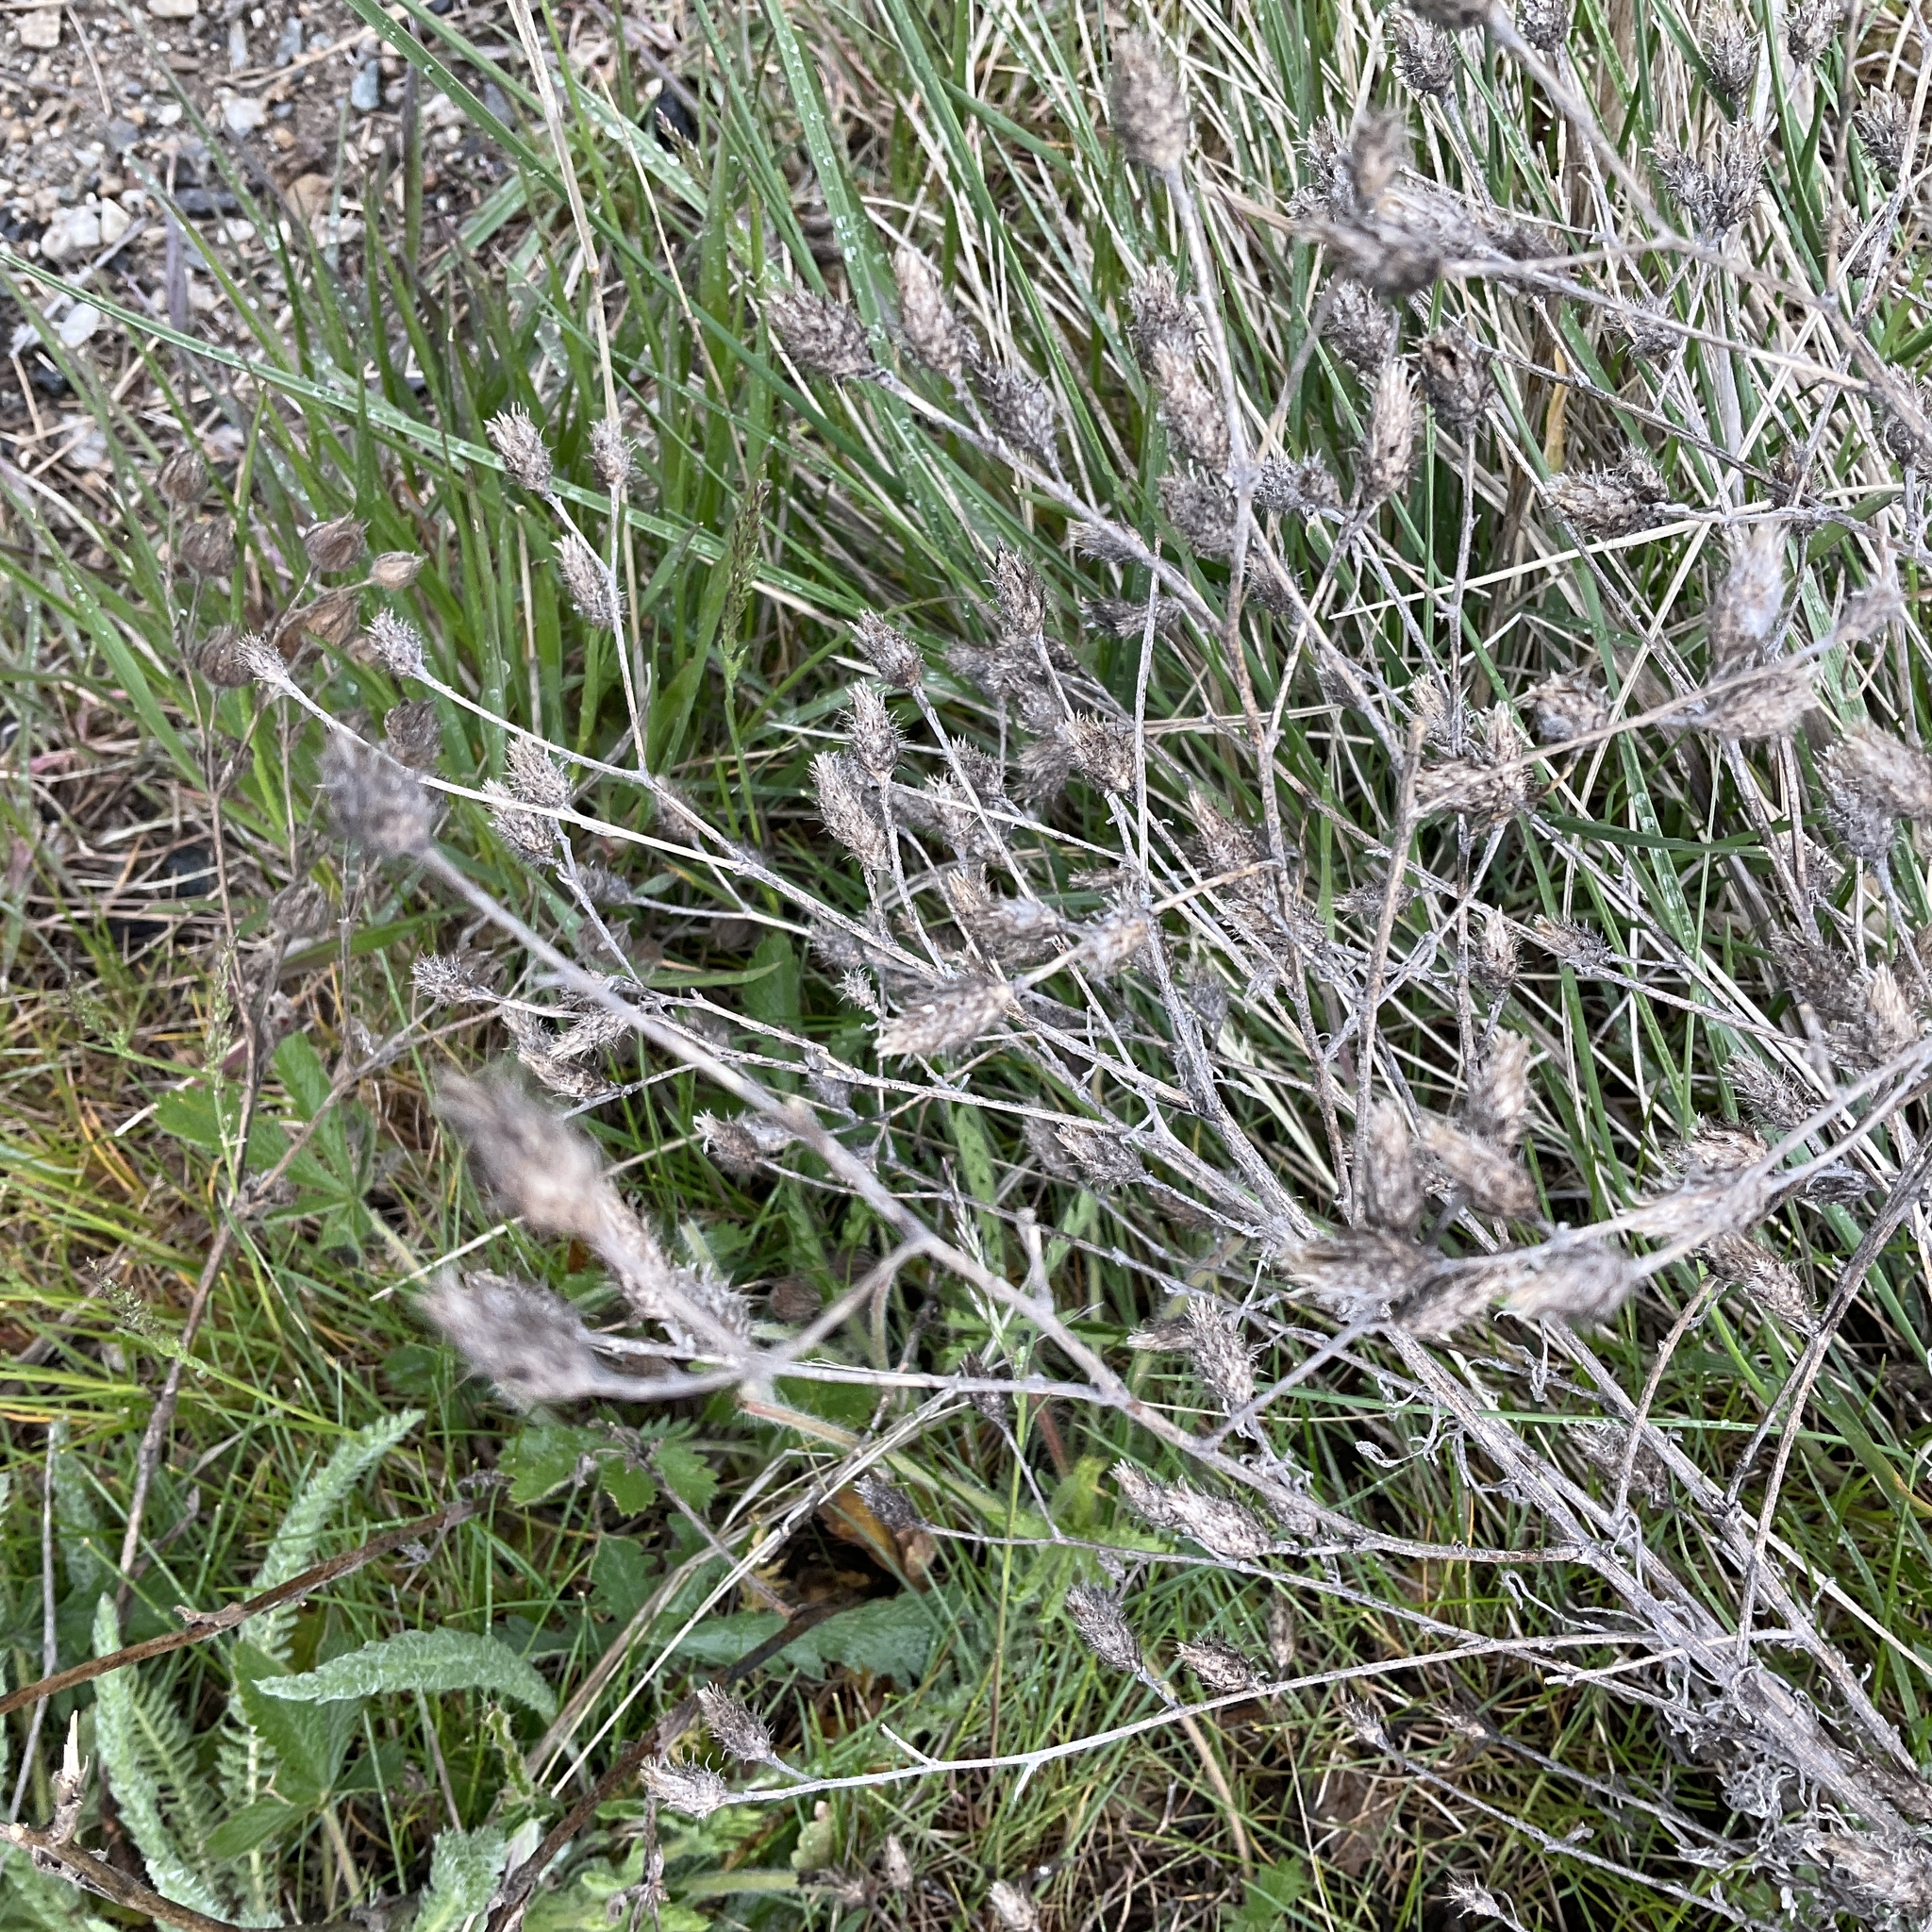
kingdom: Plantae
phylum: Tracheophyta
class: Magnoliopsida
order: Asterales
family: Asteraceae
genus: Centaurea
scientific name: Centaurea diffusa
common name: Diffuse knapweed
